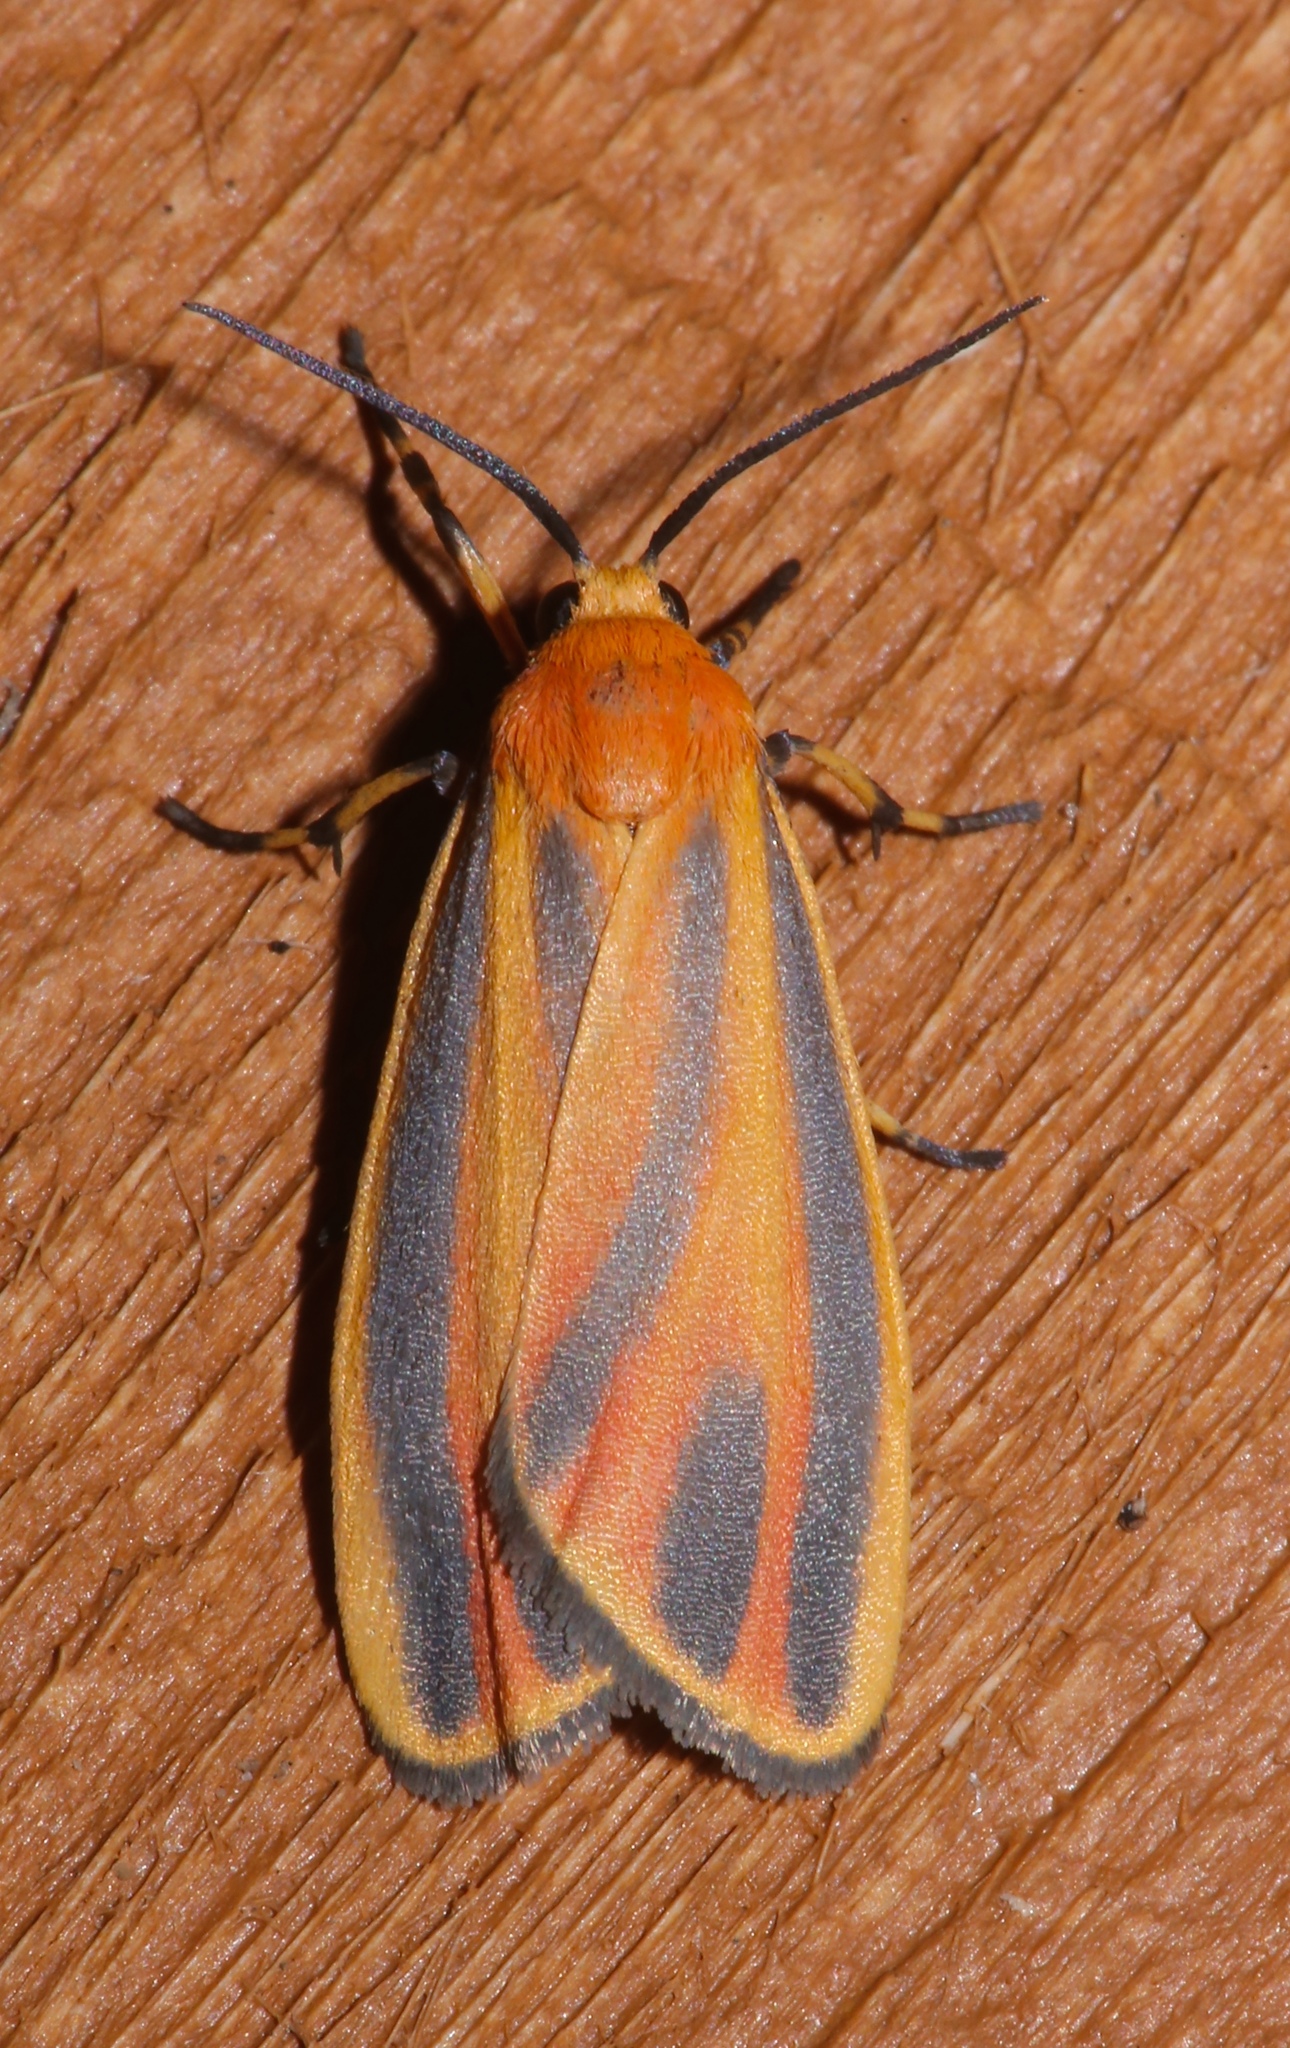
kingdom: Animalia
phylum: Arthropoda
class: Insecta
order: Lepidoptera
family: Erebidae
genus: Hypoprepia
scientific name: Hypoprepia fucosa
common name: Painted lichen moth
